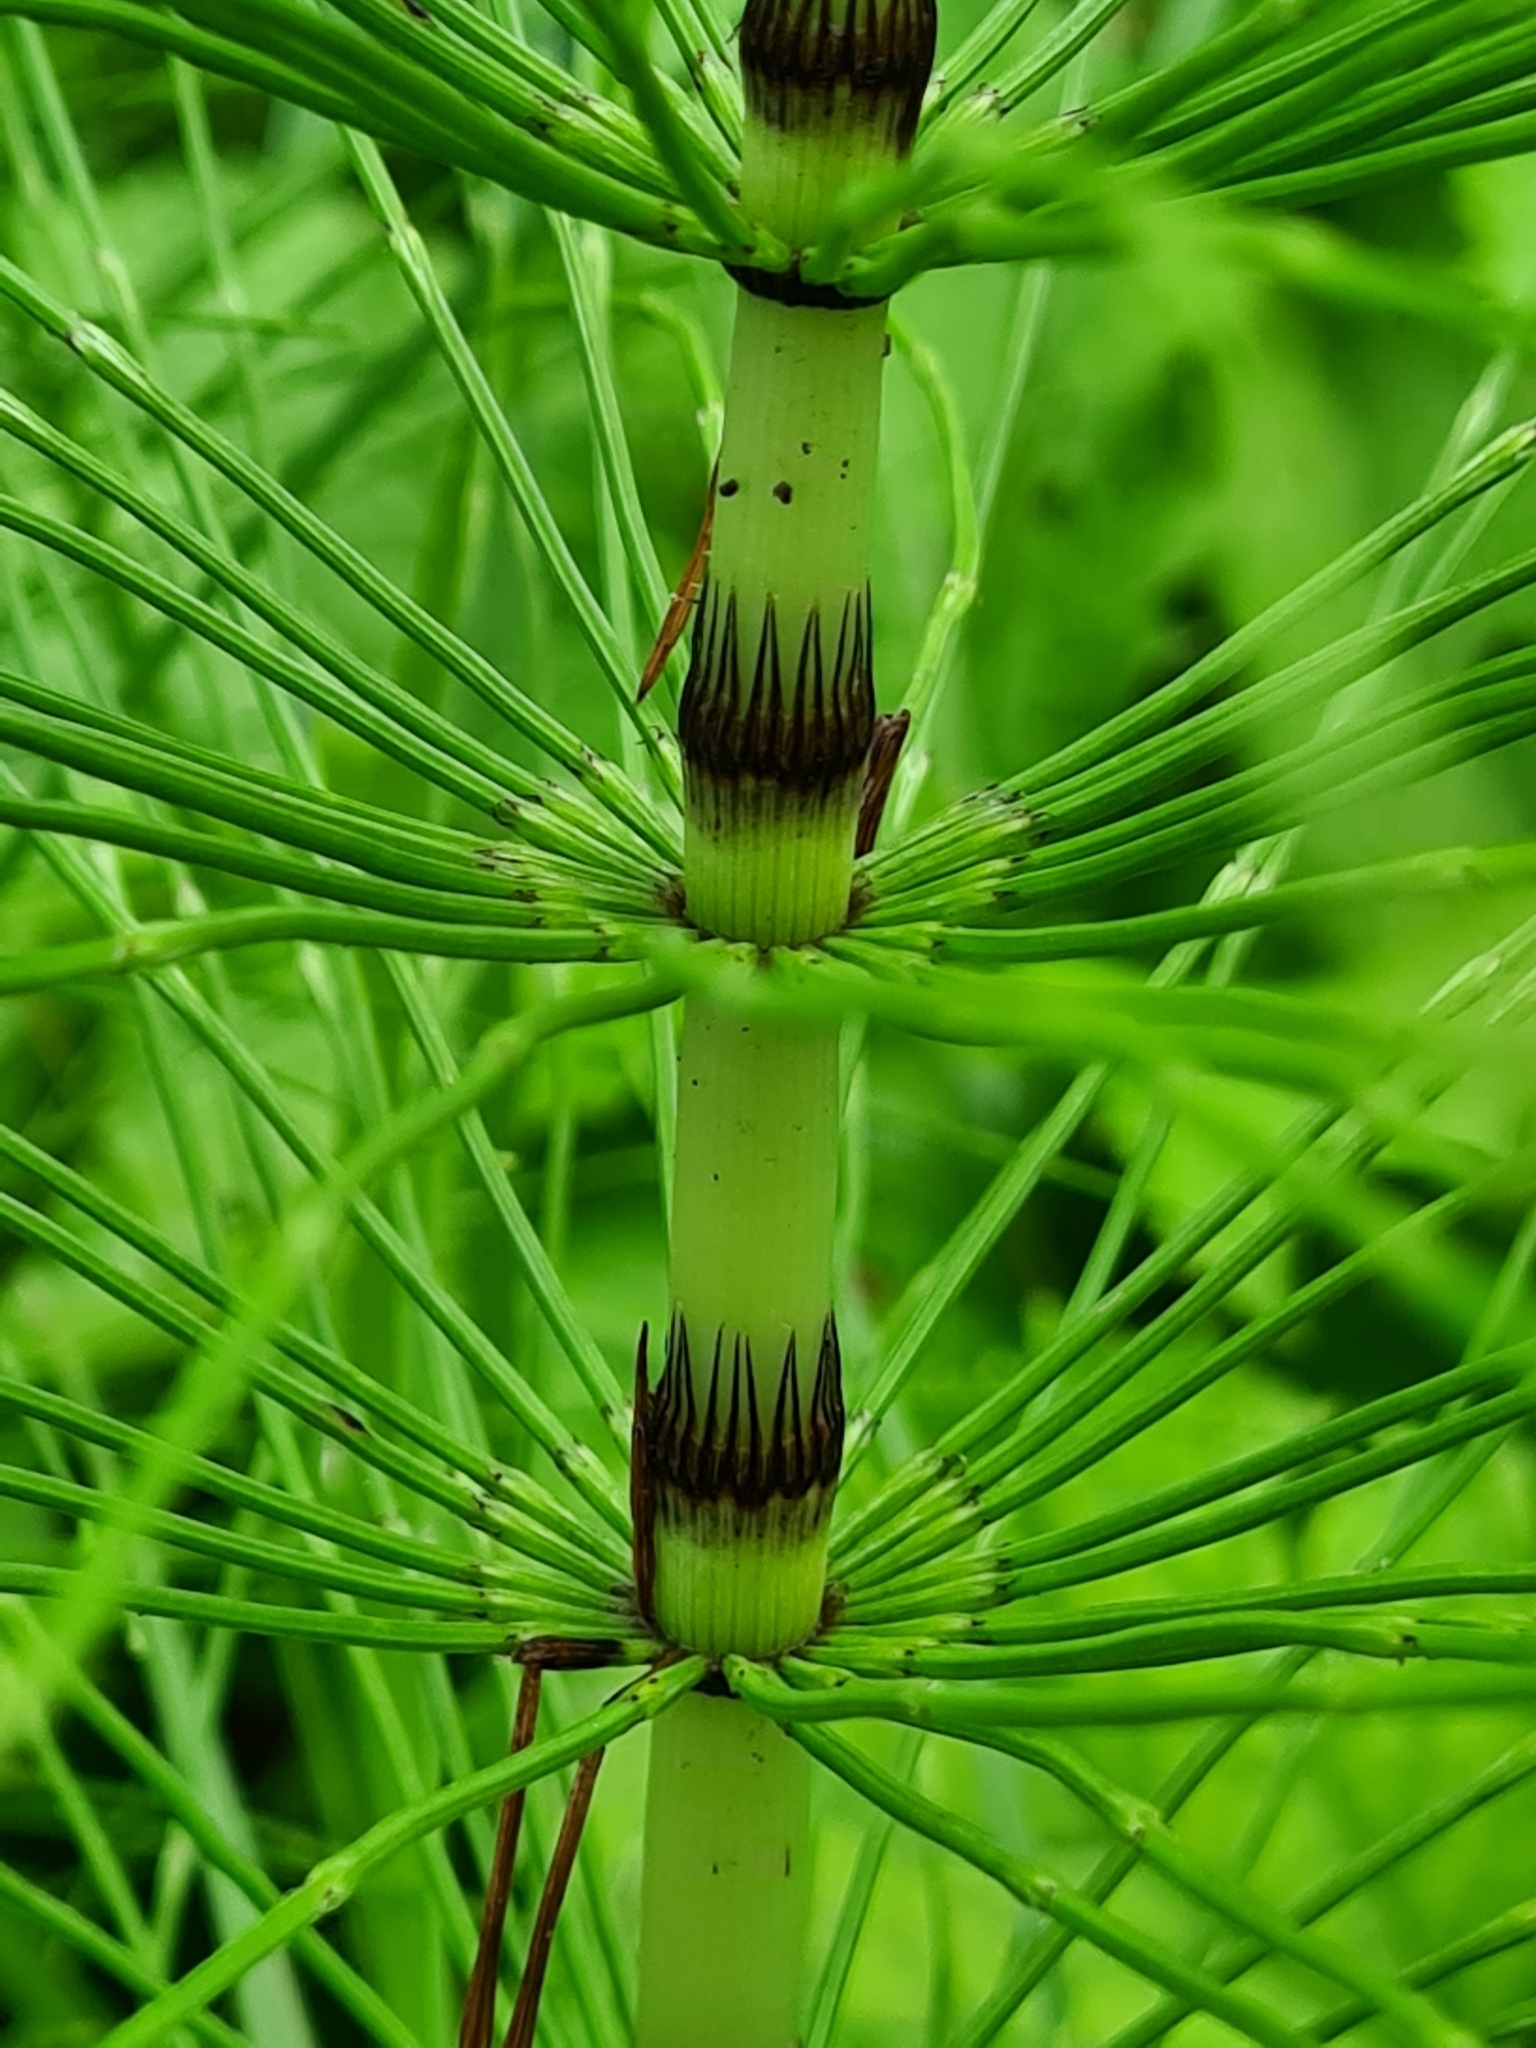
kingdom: Plantae
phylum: Tracheophyta
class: Polypodiopsida
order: Equisetales
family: Equisetaceae
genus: Equisetum
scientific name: Equisetum telmateia
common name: Great horsetail
